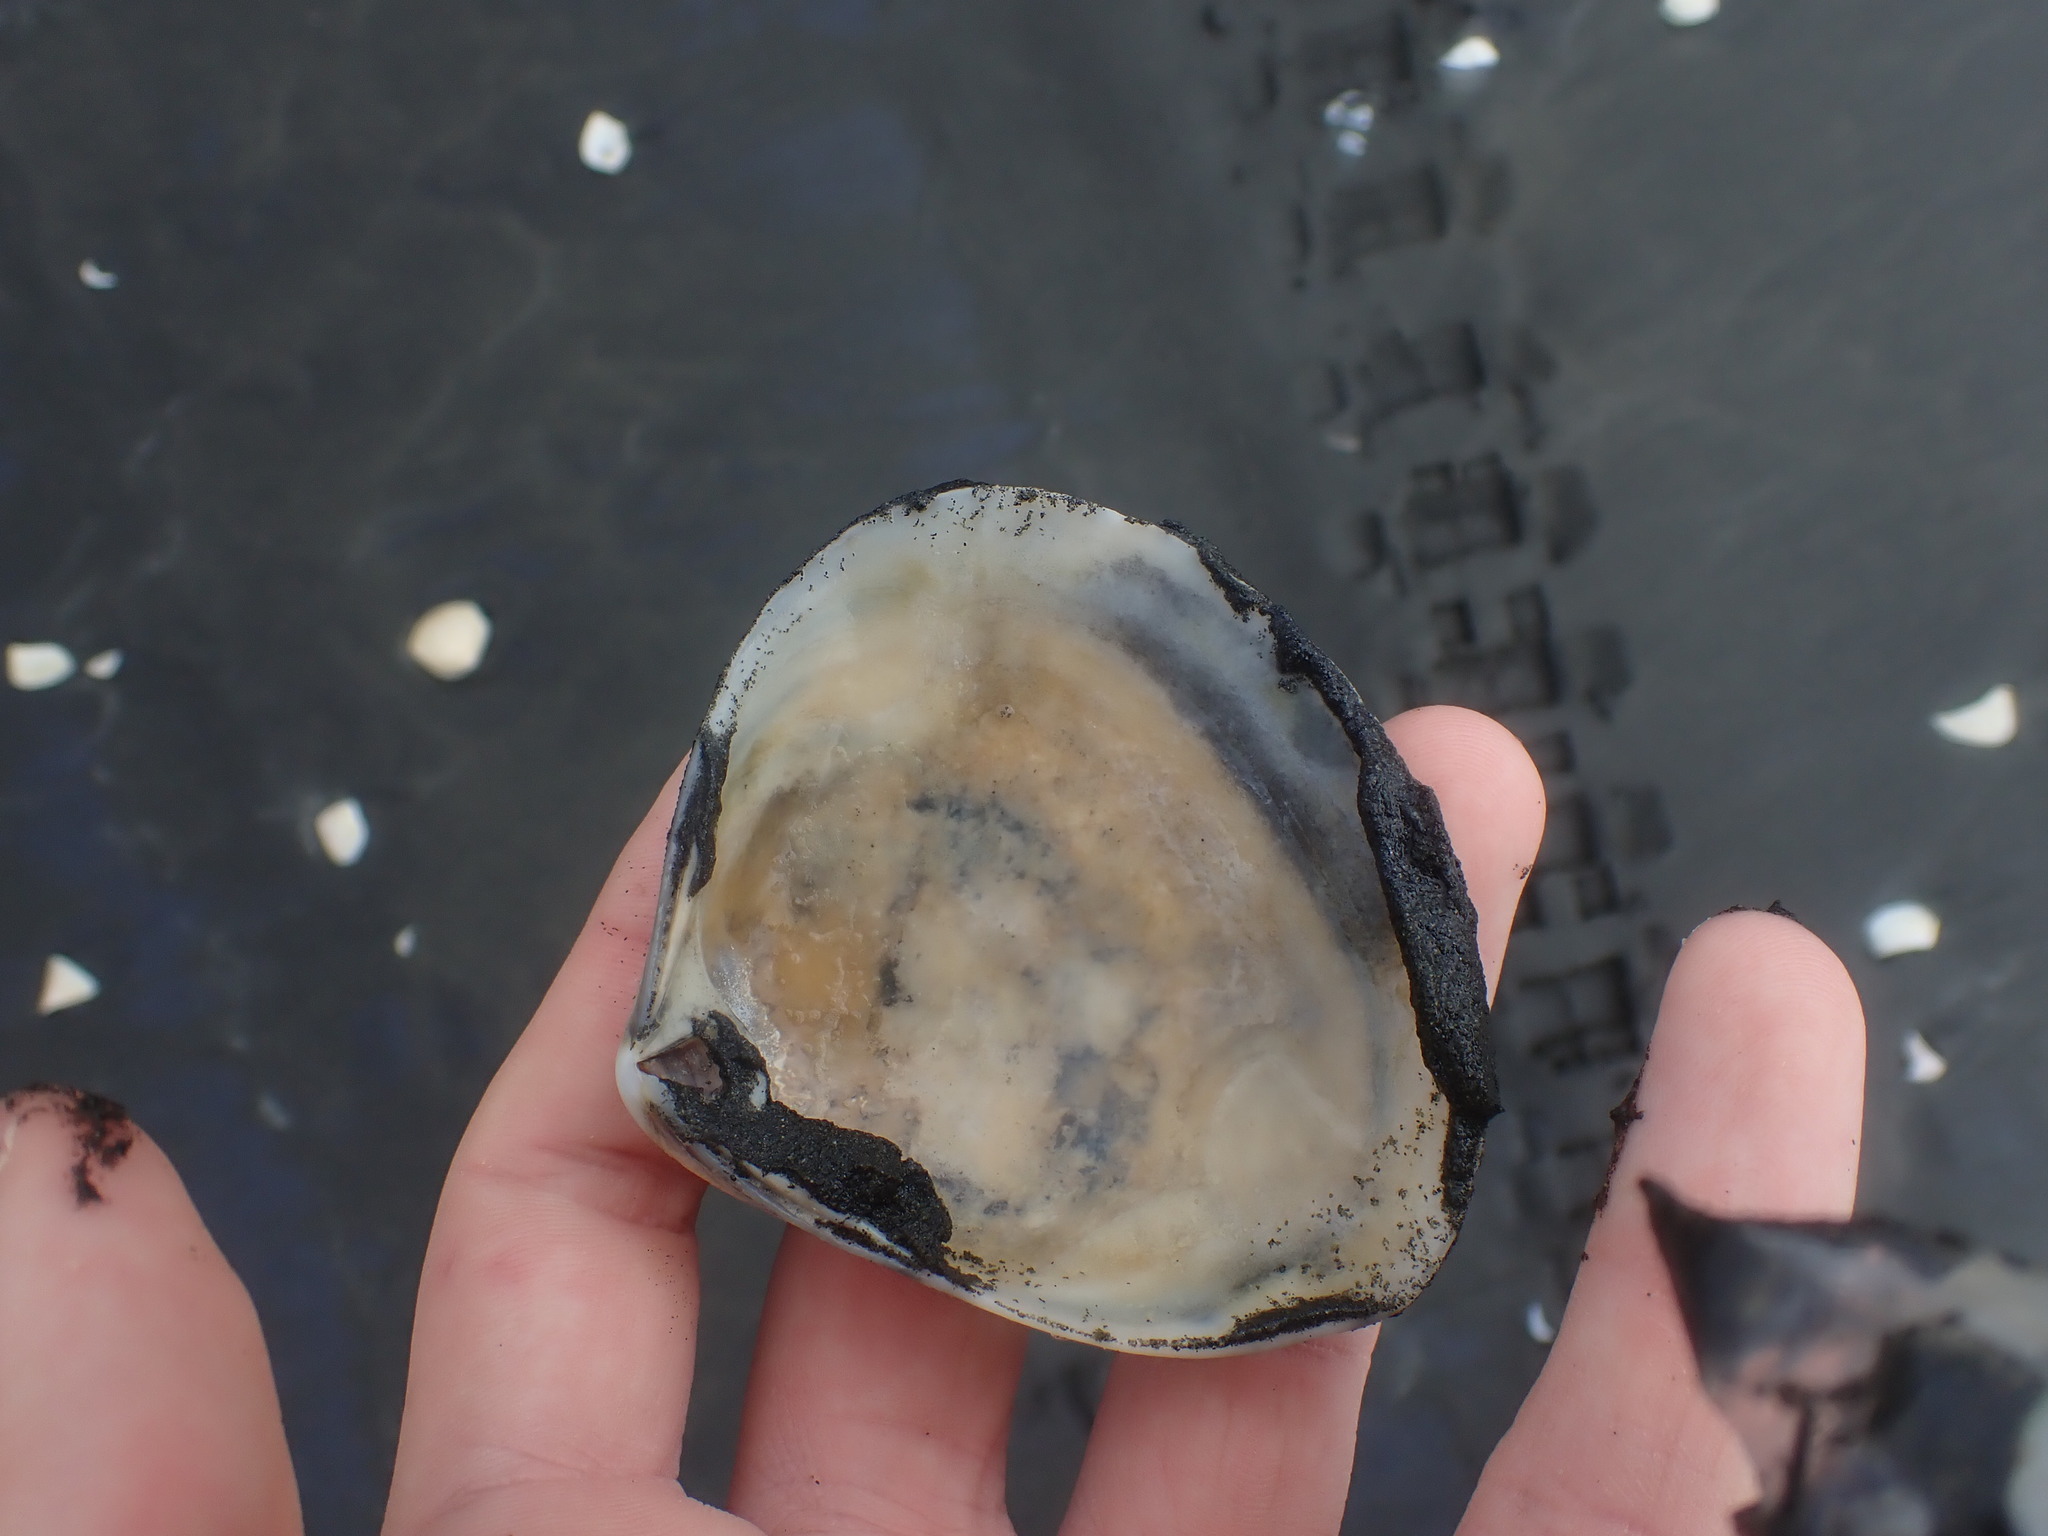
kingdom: Animalia
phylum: Mollusca
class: Bivalvia
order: Venerida
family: Mactridae
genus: Spisula
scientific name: Spisula murchisoni
